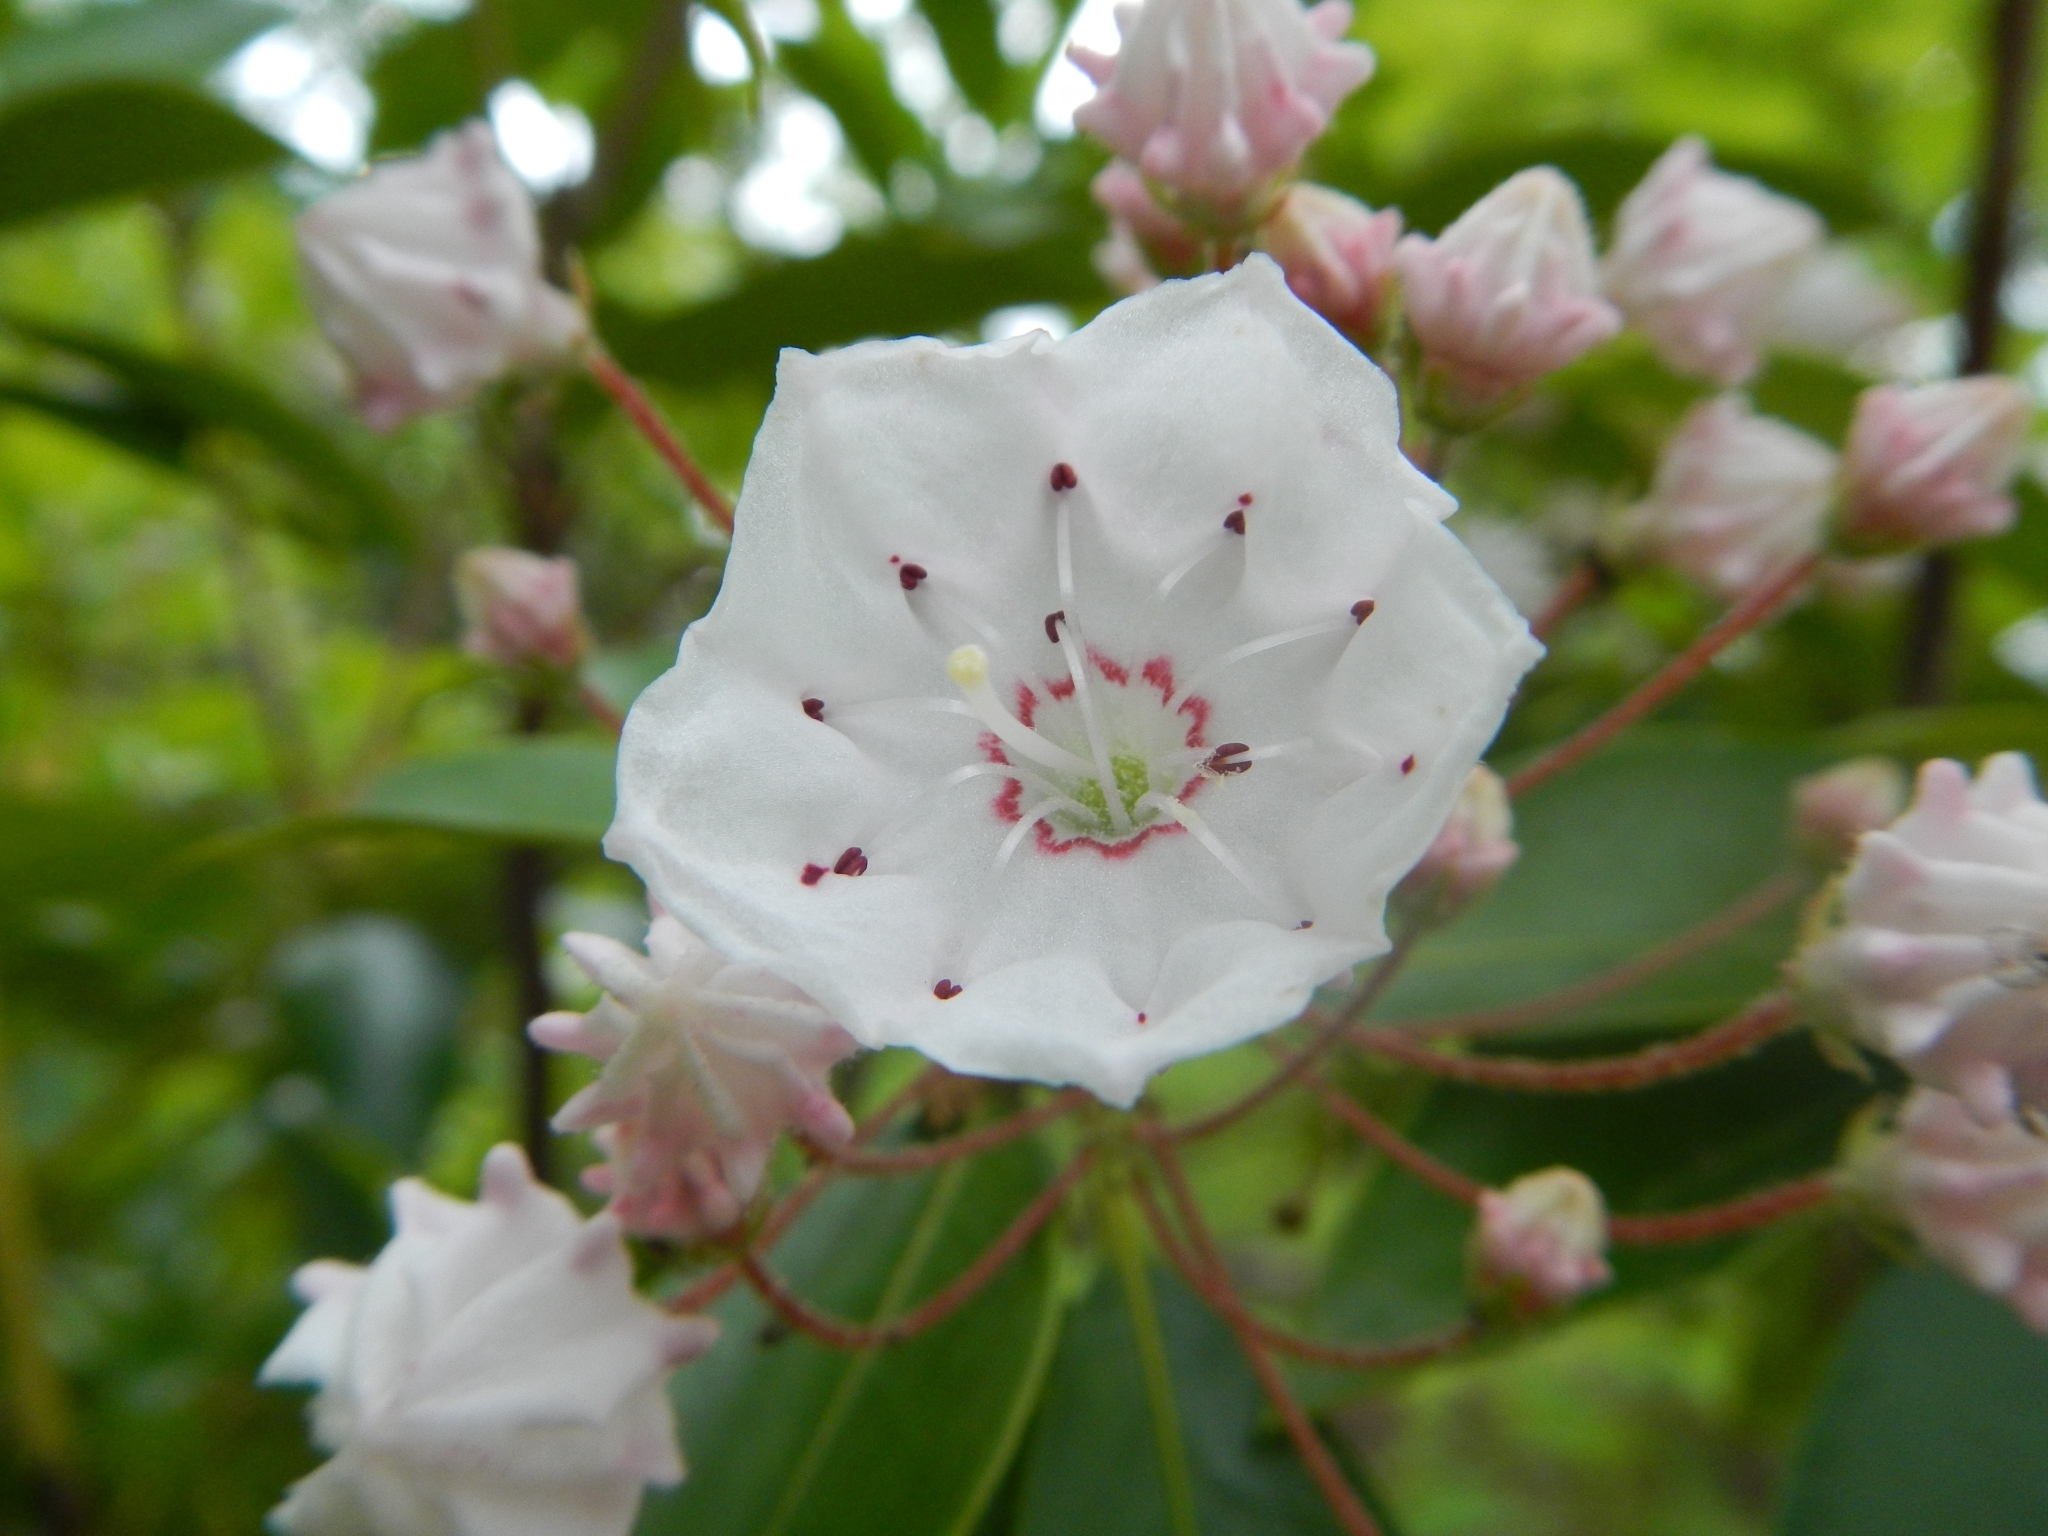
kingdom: Plantae
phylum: Tracheophyta
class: Magnoliopsida
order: Ericales
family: Ericaceae
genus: Kalmia
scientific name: Kalmia latifolia
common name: Mountain-laurel
